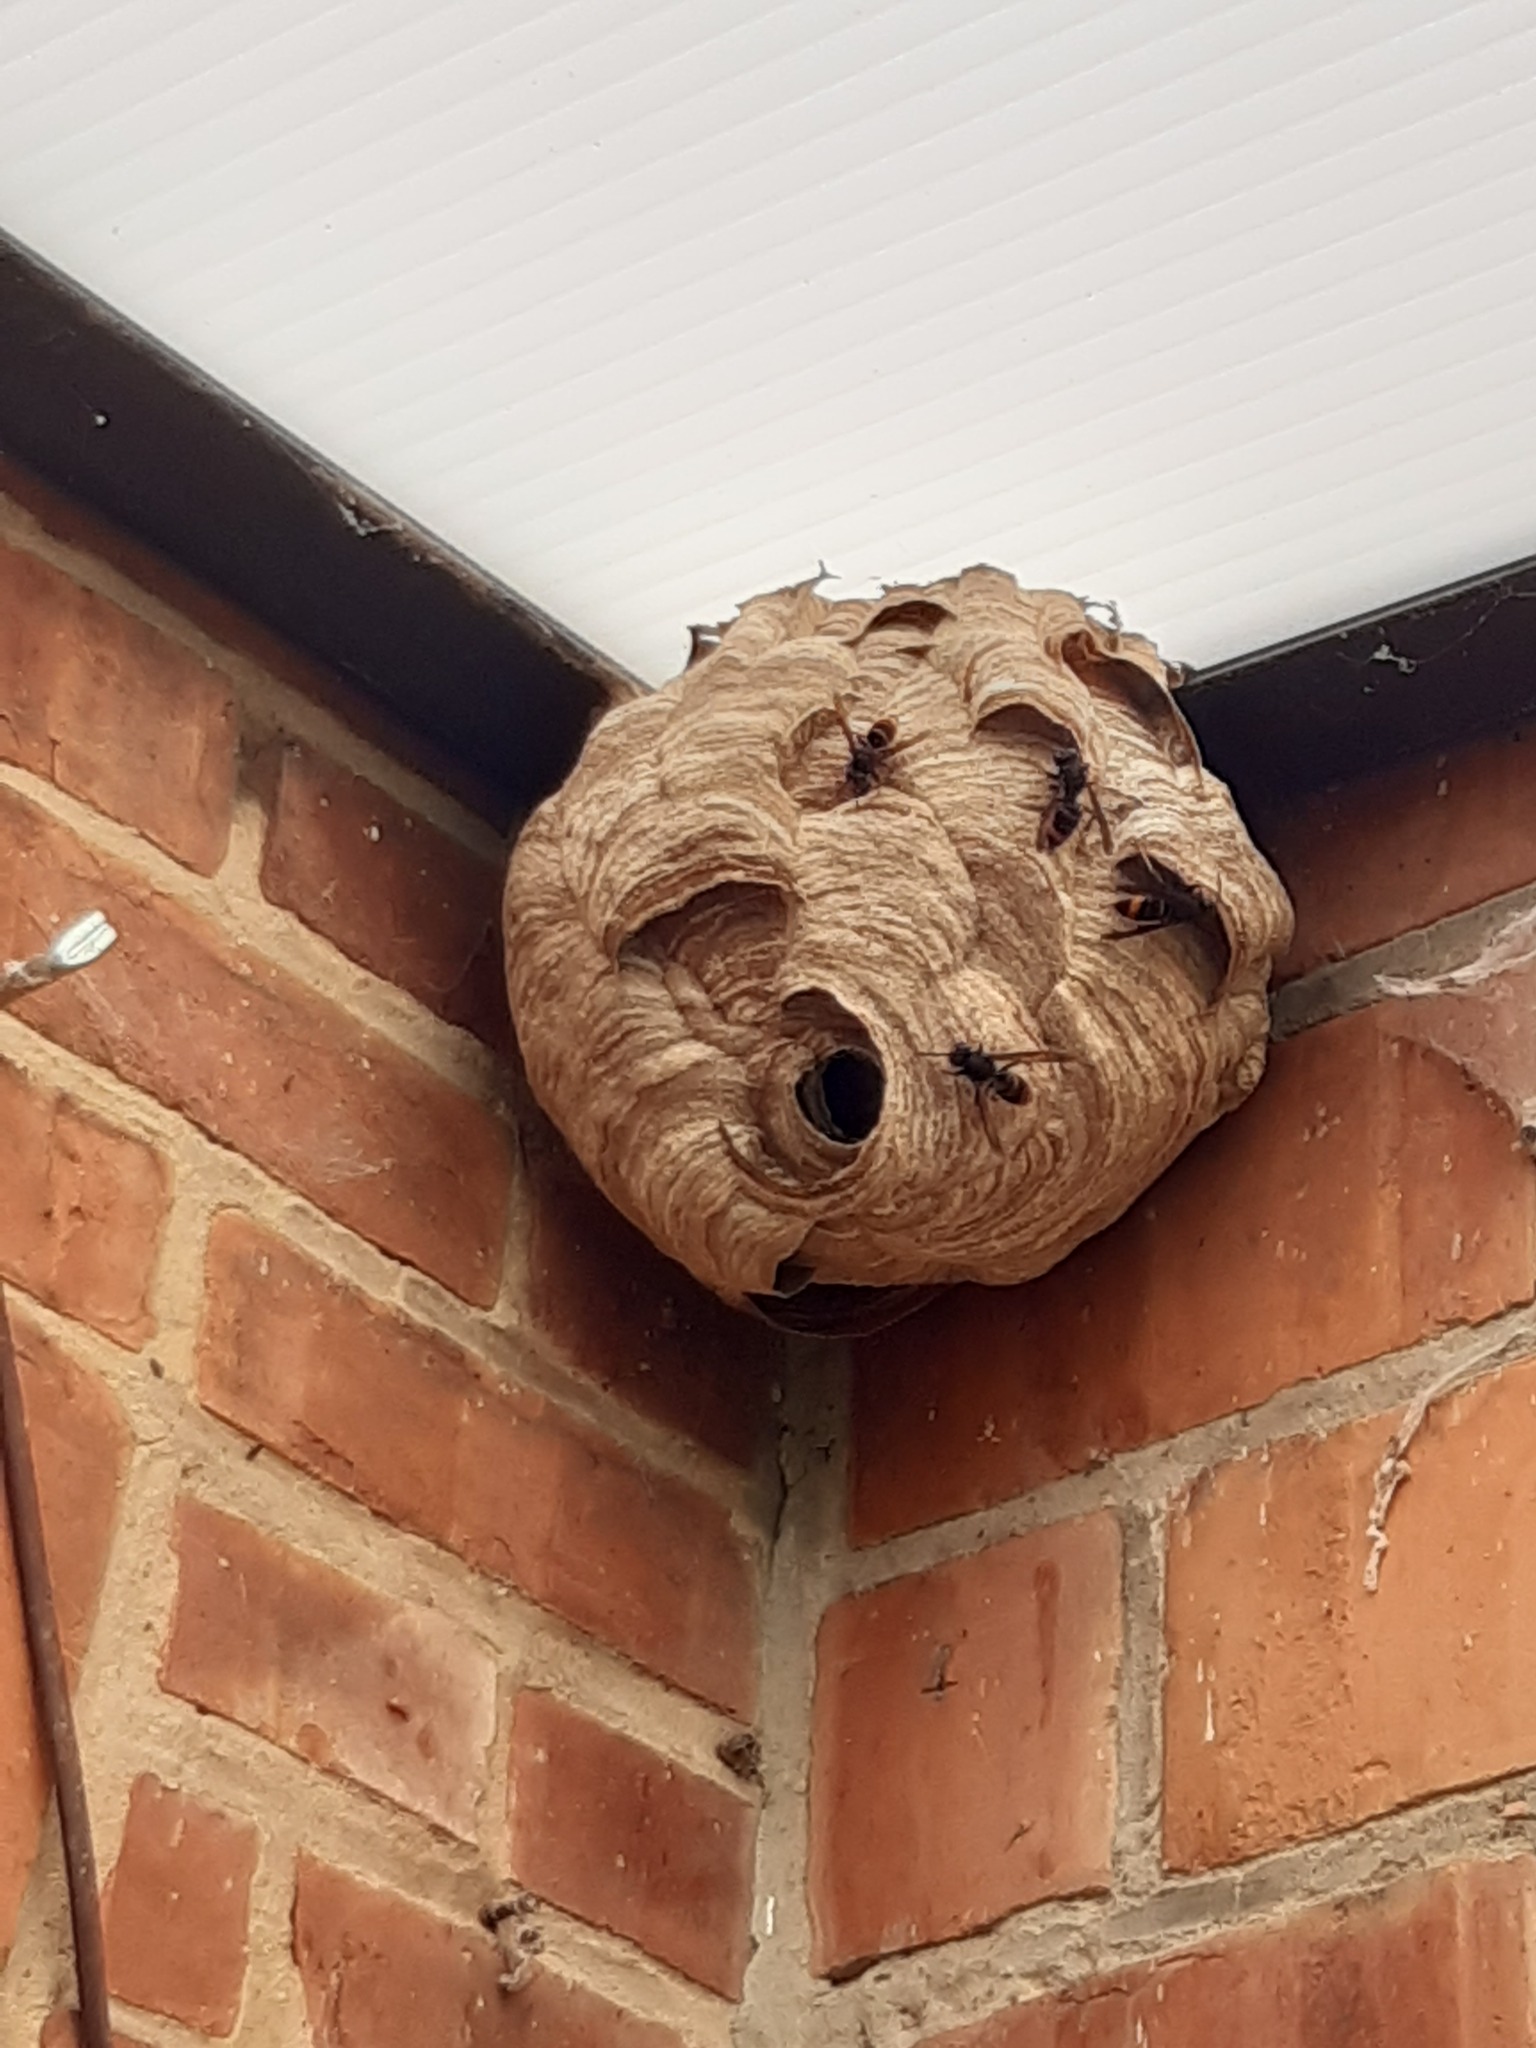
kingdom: Animalia
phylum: Arthropoda
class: Insecta
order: Hymenoptera
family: Vespidae
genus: Vespa
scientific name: Vespa velutina
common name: Asian hornet
